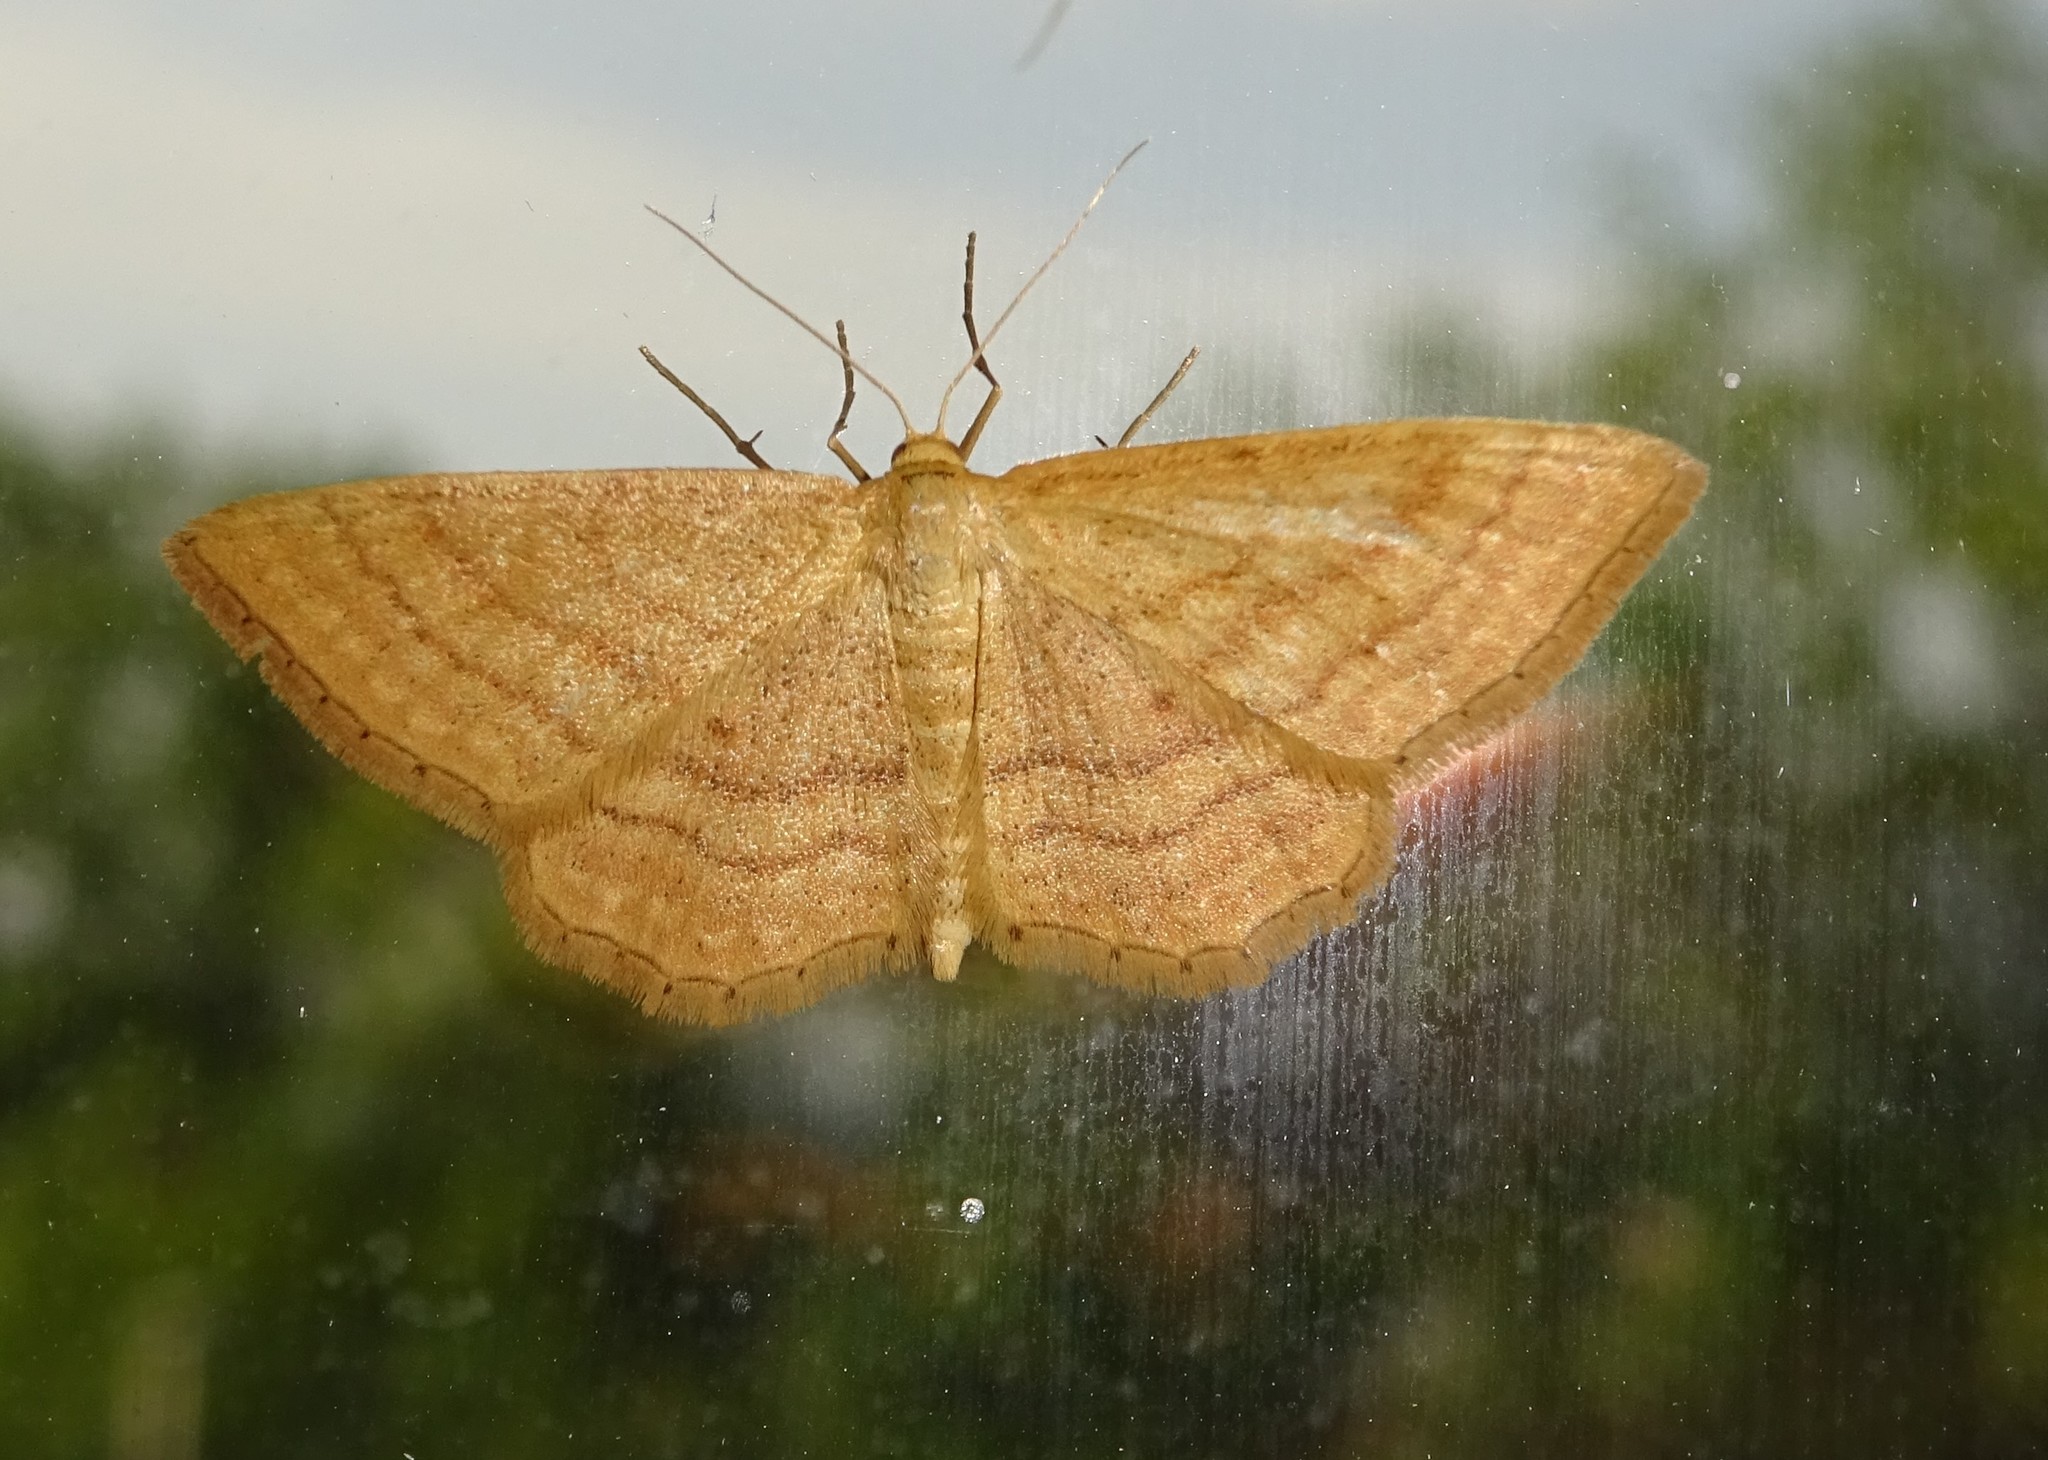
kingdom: Animalia
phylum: Arthropoda
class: Insecta
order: Lepidoptera
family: Geometridae
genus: Idaea
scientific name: Idaea ochrata
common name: Bright wave
